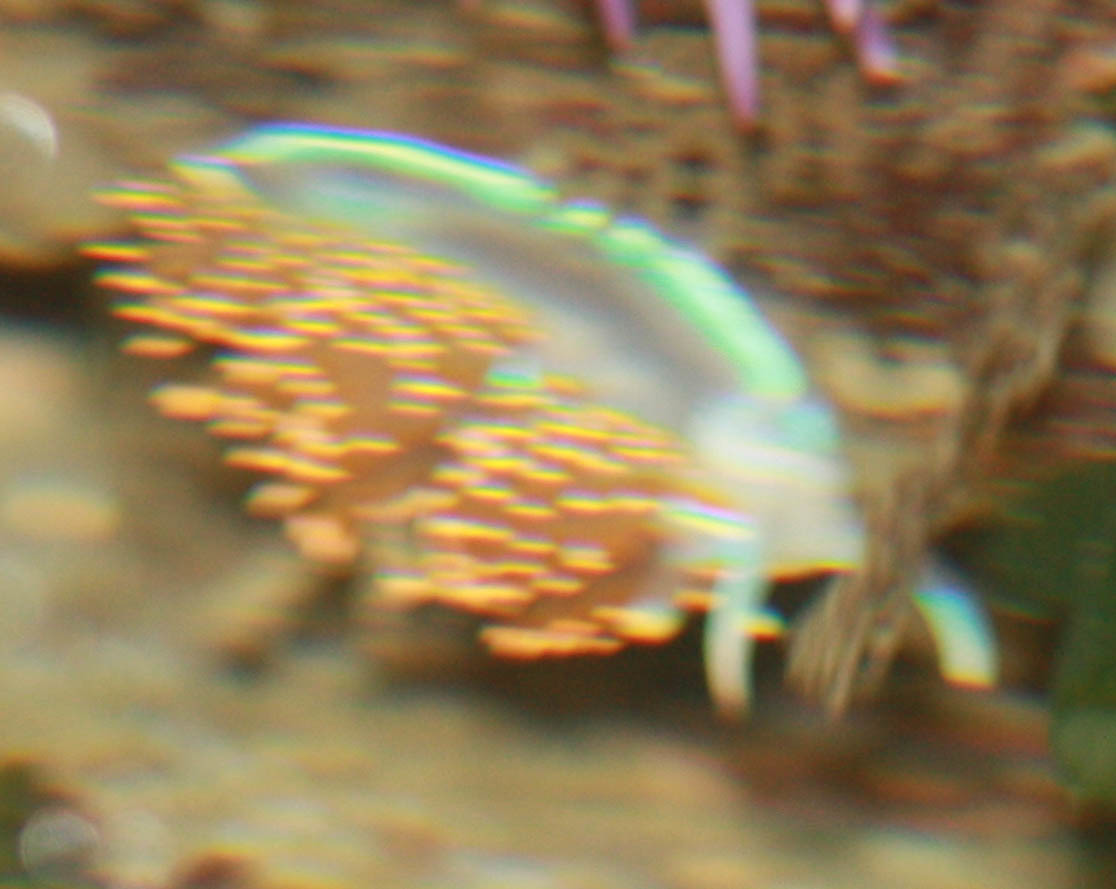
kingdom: Animalia
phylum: Mollusca
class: Gastropoda
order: Nudibranchia
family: Myrrhinidae
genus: Hermissenda
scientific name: Hermissenda opalescens
